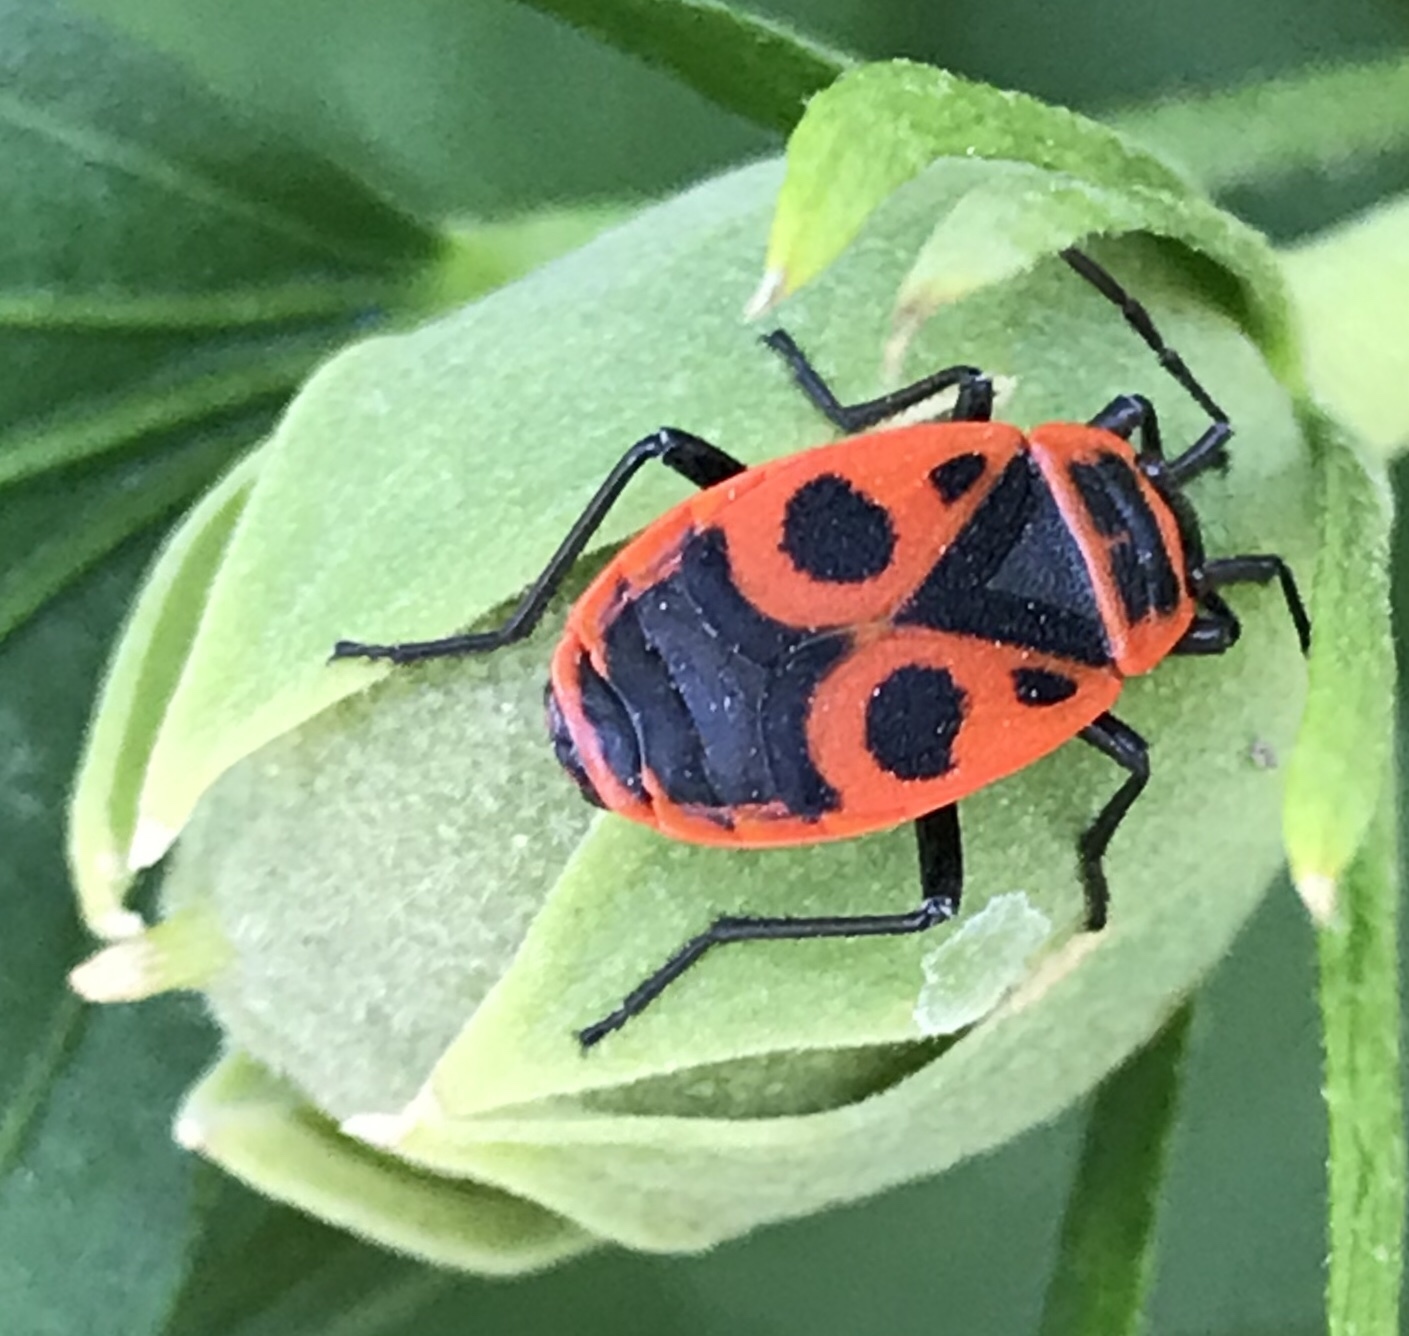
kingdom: Animalia
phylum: Arthropoda
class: Insecta
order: Hemiptera
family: Pyrrhocoridae
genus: Pyrrhocoris
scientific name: Pyrrhocoris apterus
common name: Firebug
